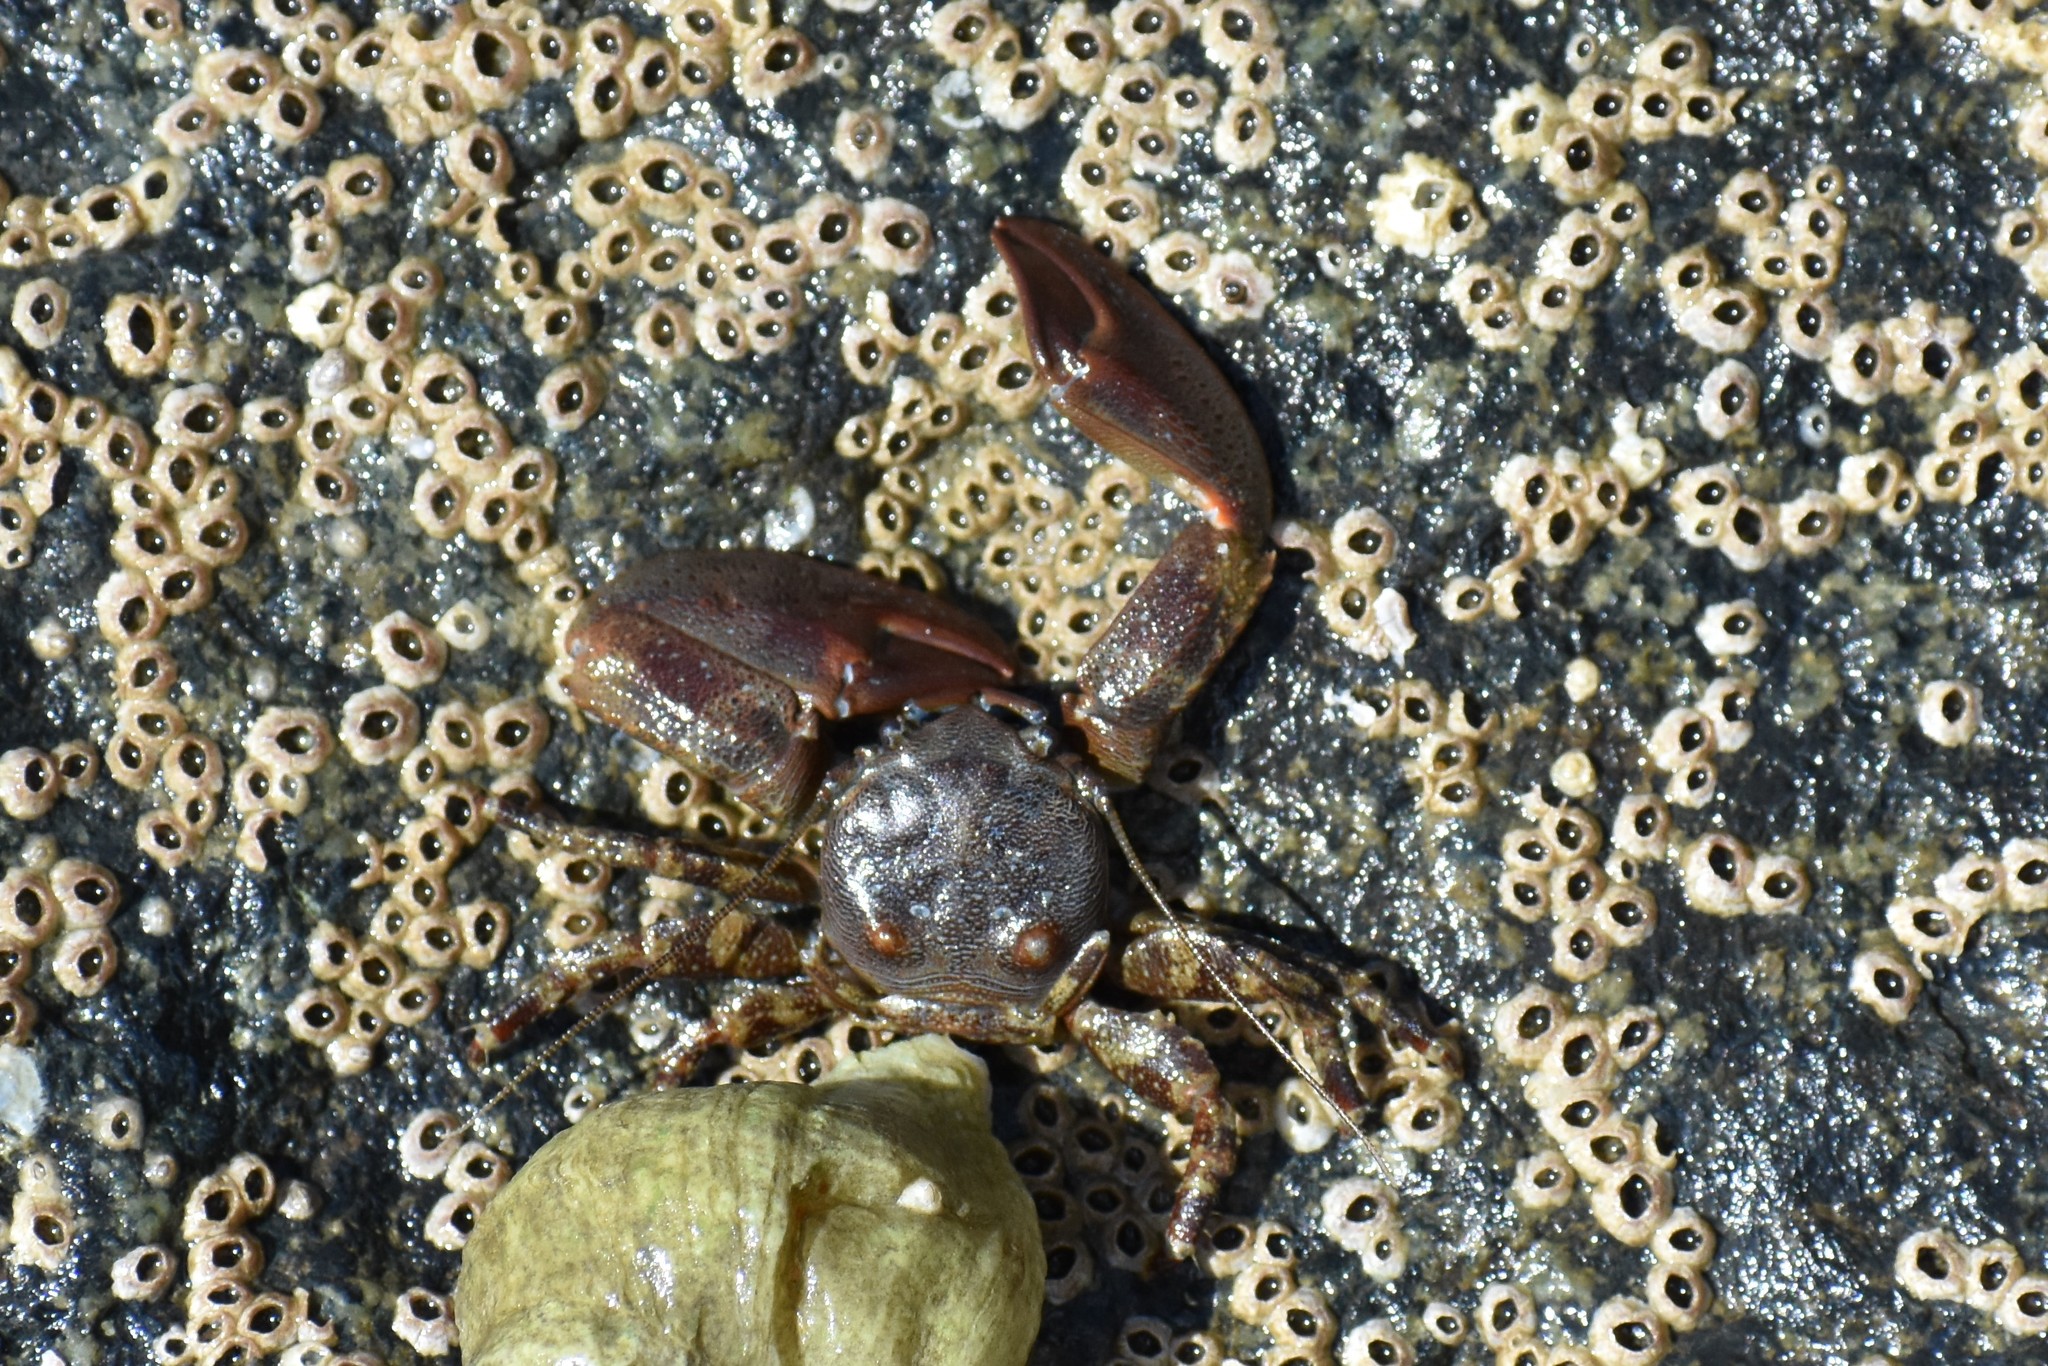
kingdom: Animalia
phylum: Arthropoda
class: Malacostraca
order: Decapoda
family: Porcellanidae
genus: Petrolisthes
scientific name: Petrolisthes eriomerus
